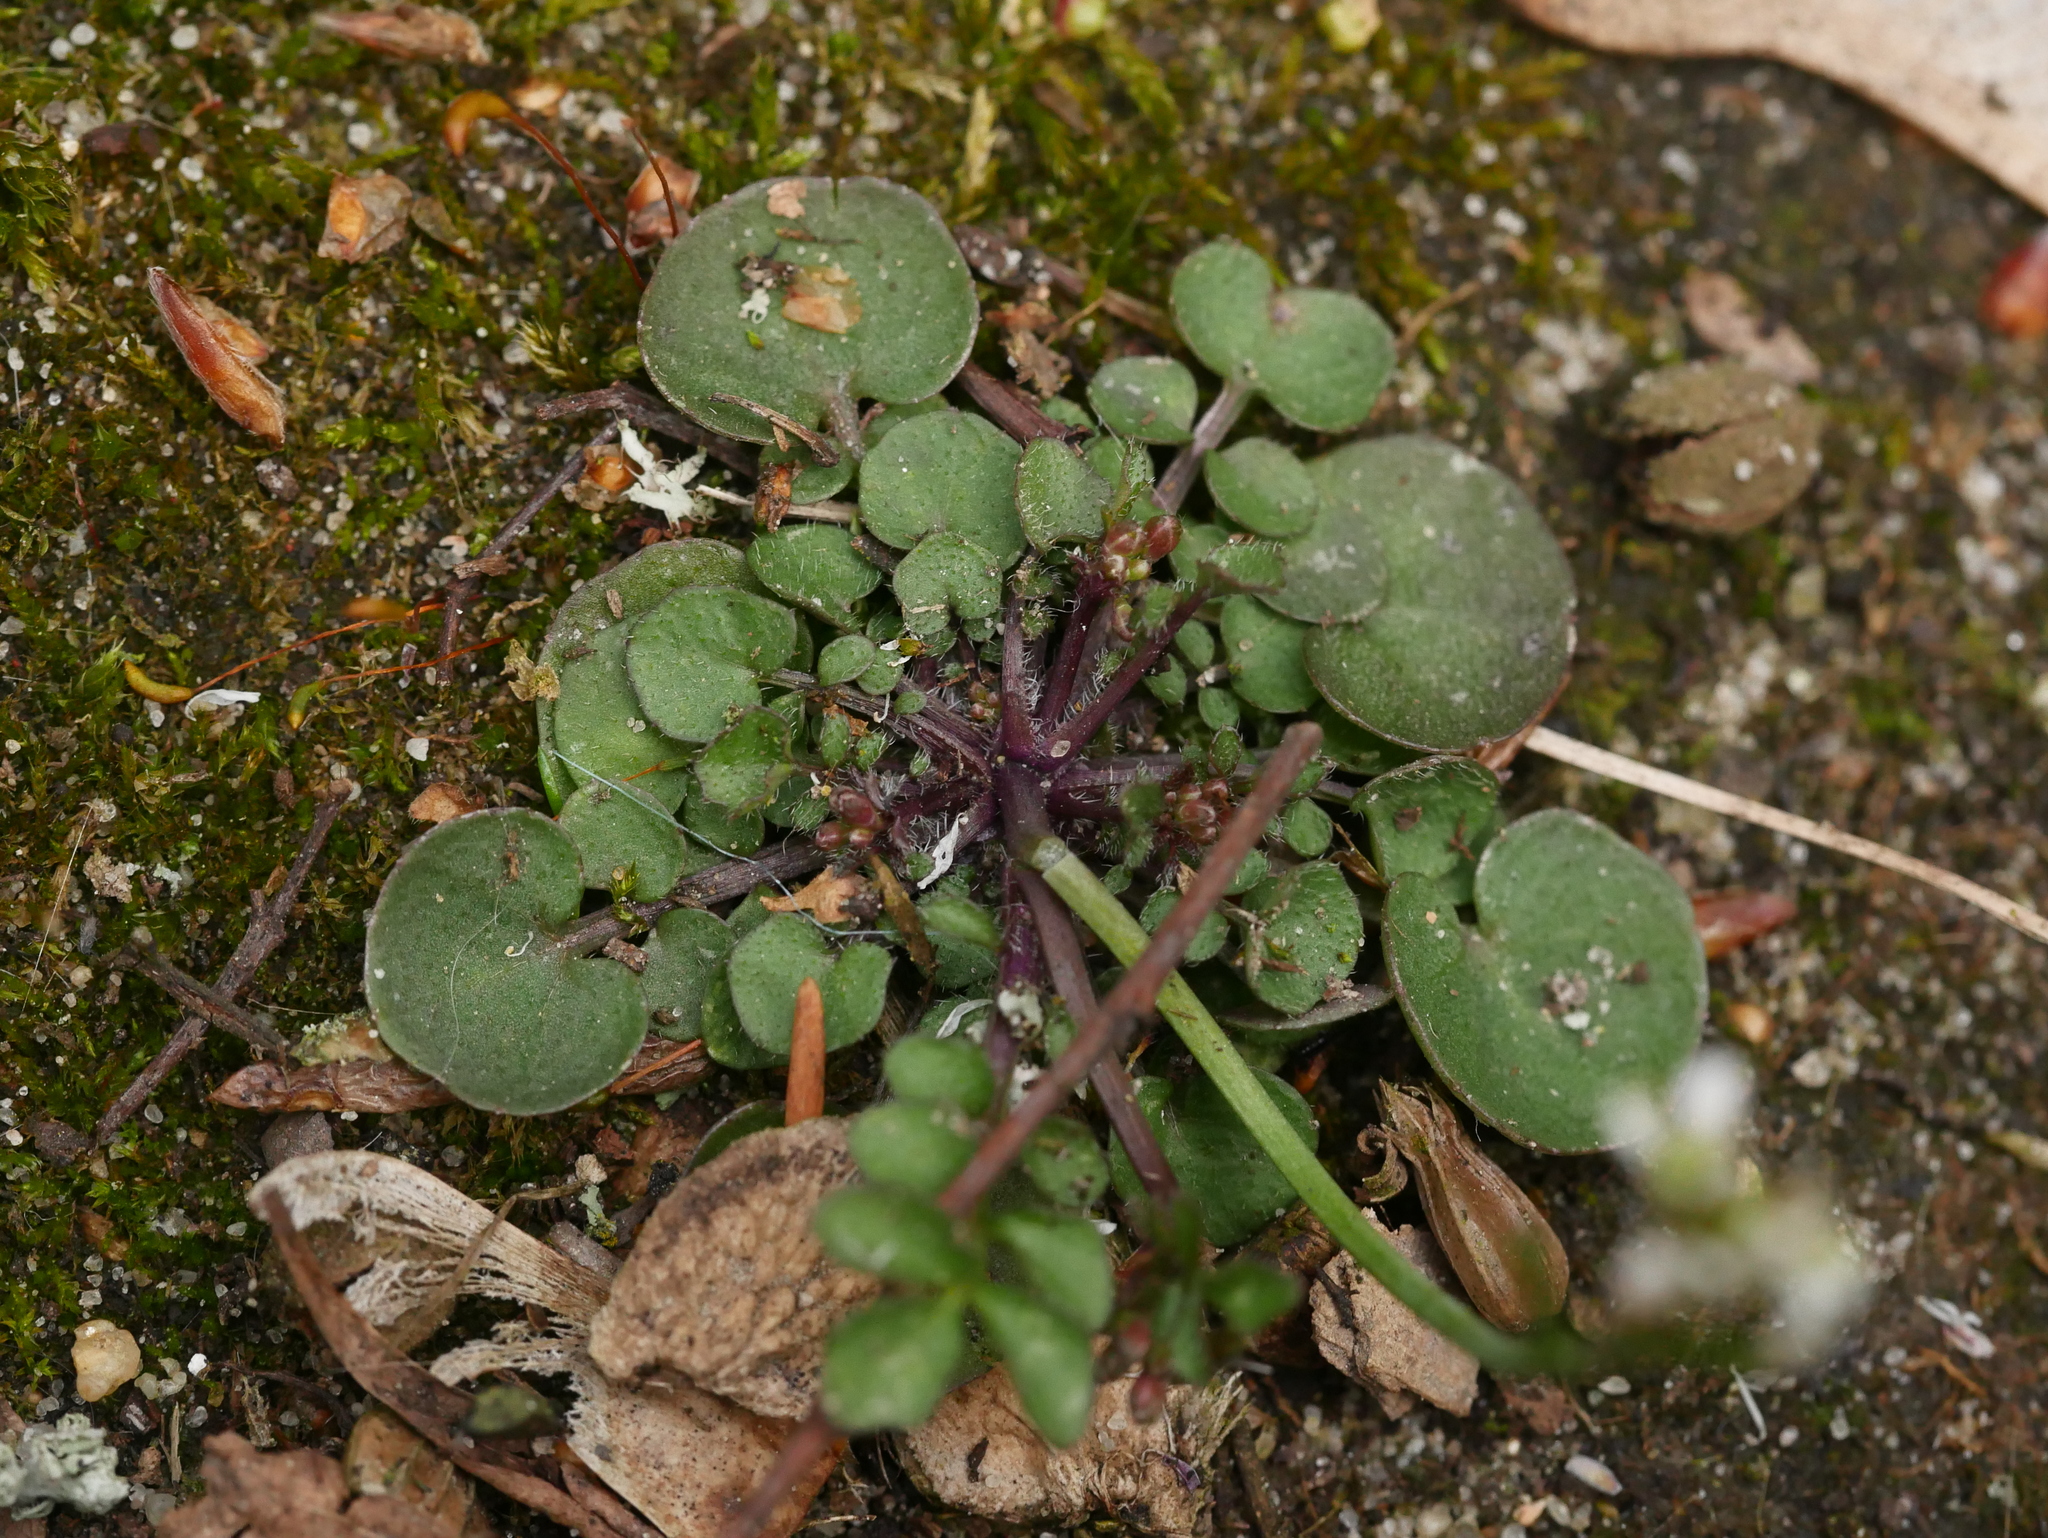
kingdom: Plantae
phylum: Tracheophyta
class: Magnoliopsida
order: Brassicales
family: Brassicaceae
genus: Cardamine
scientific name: Cardamine hirsuta
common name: Hairy bittercress
